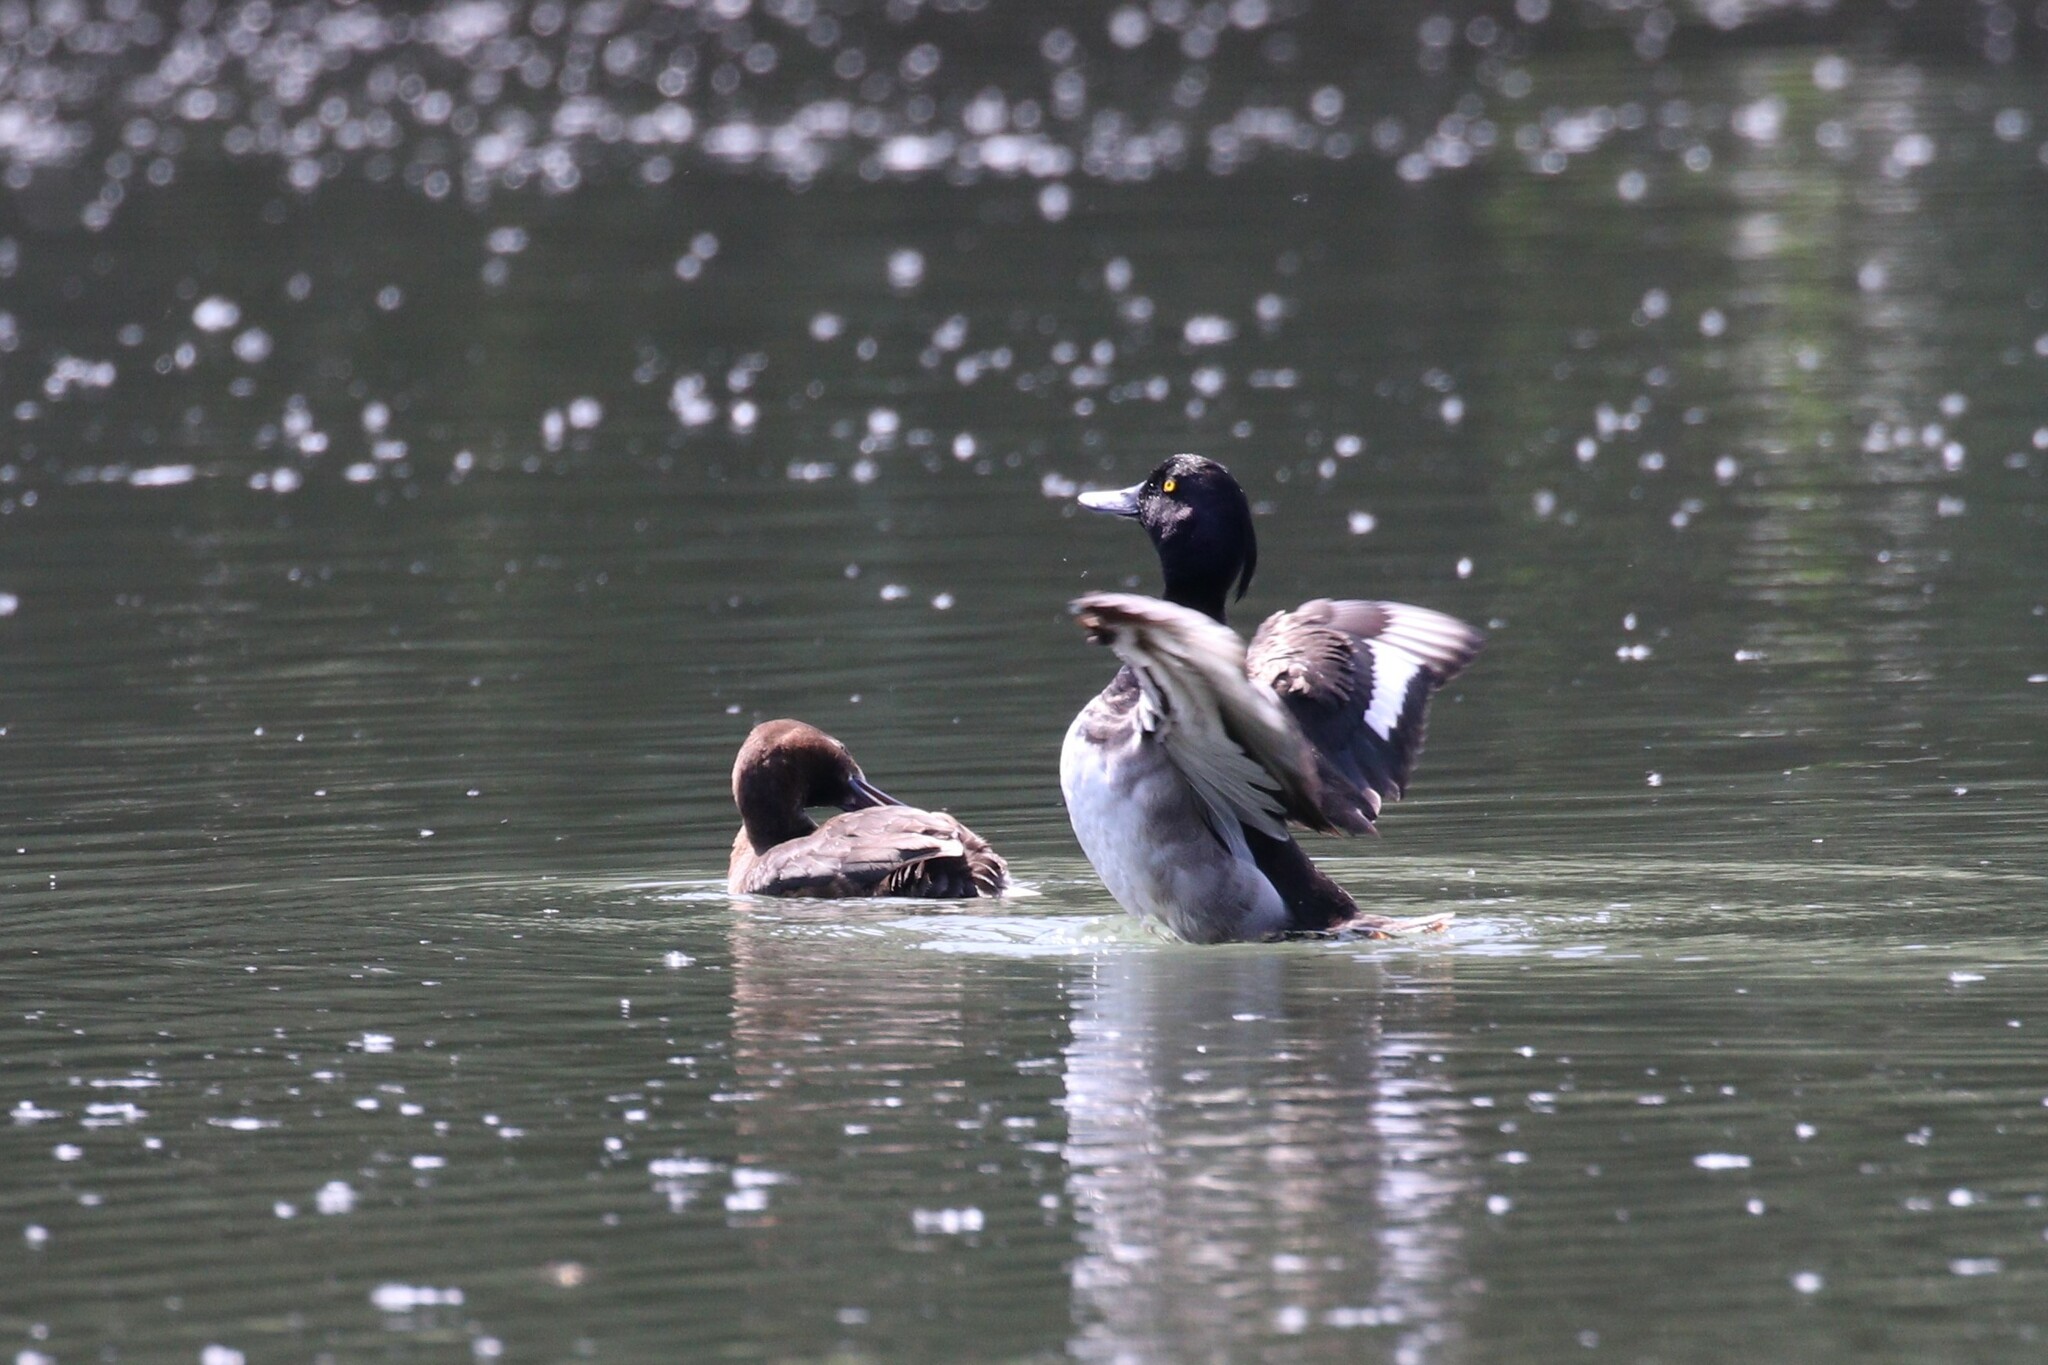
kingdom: Animalia
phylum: Chordata
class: Aves
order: Anseriformes
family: Anatidae
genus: Aythya
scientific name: Aythya fuligula
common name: Tufted duck
